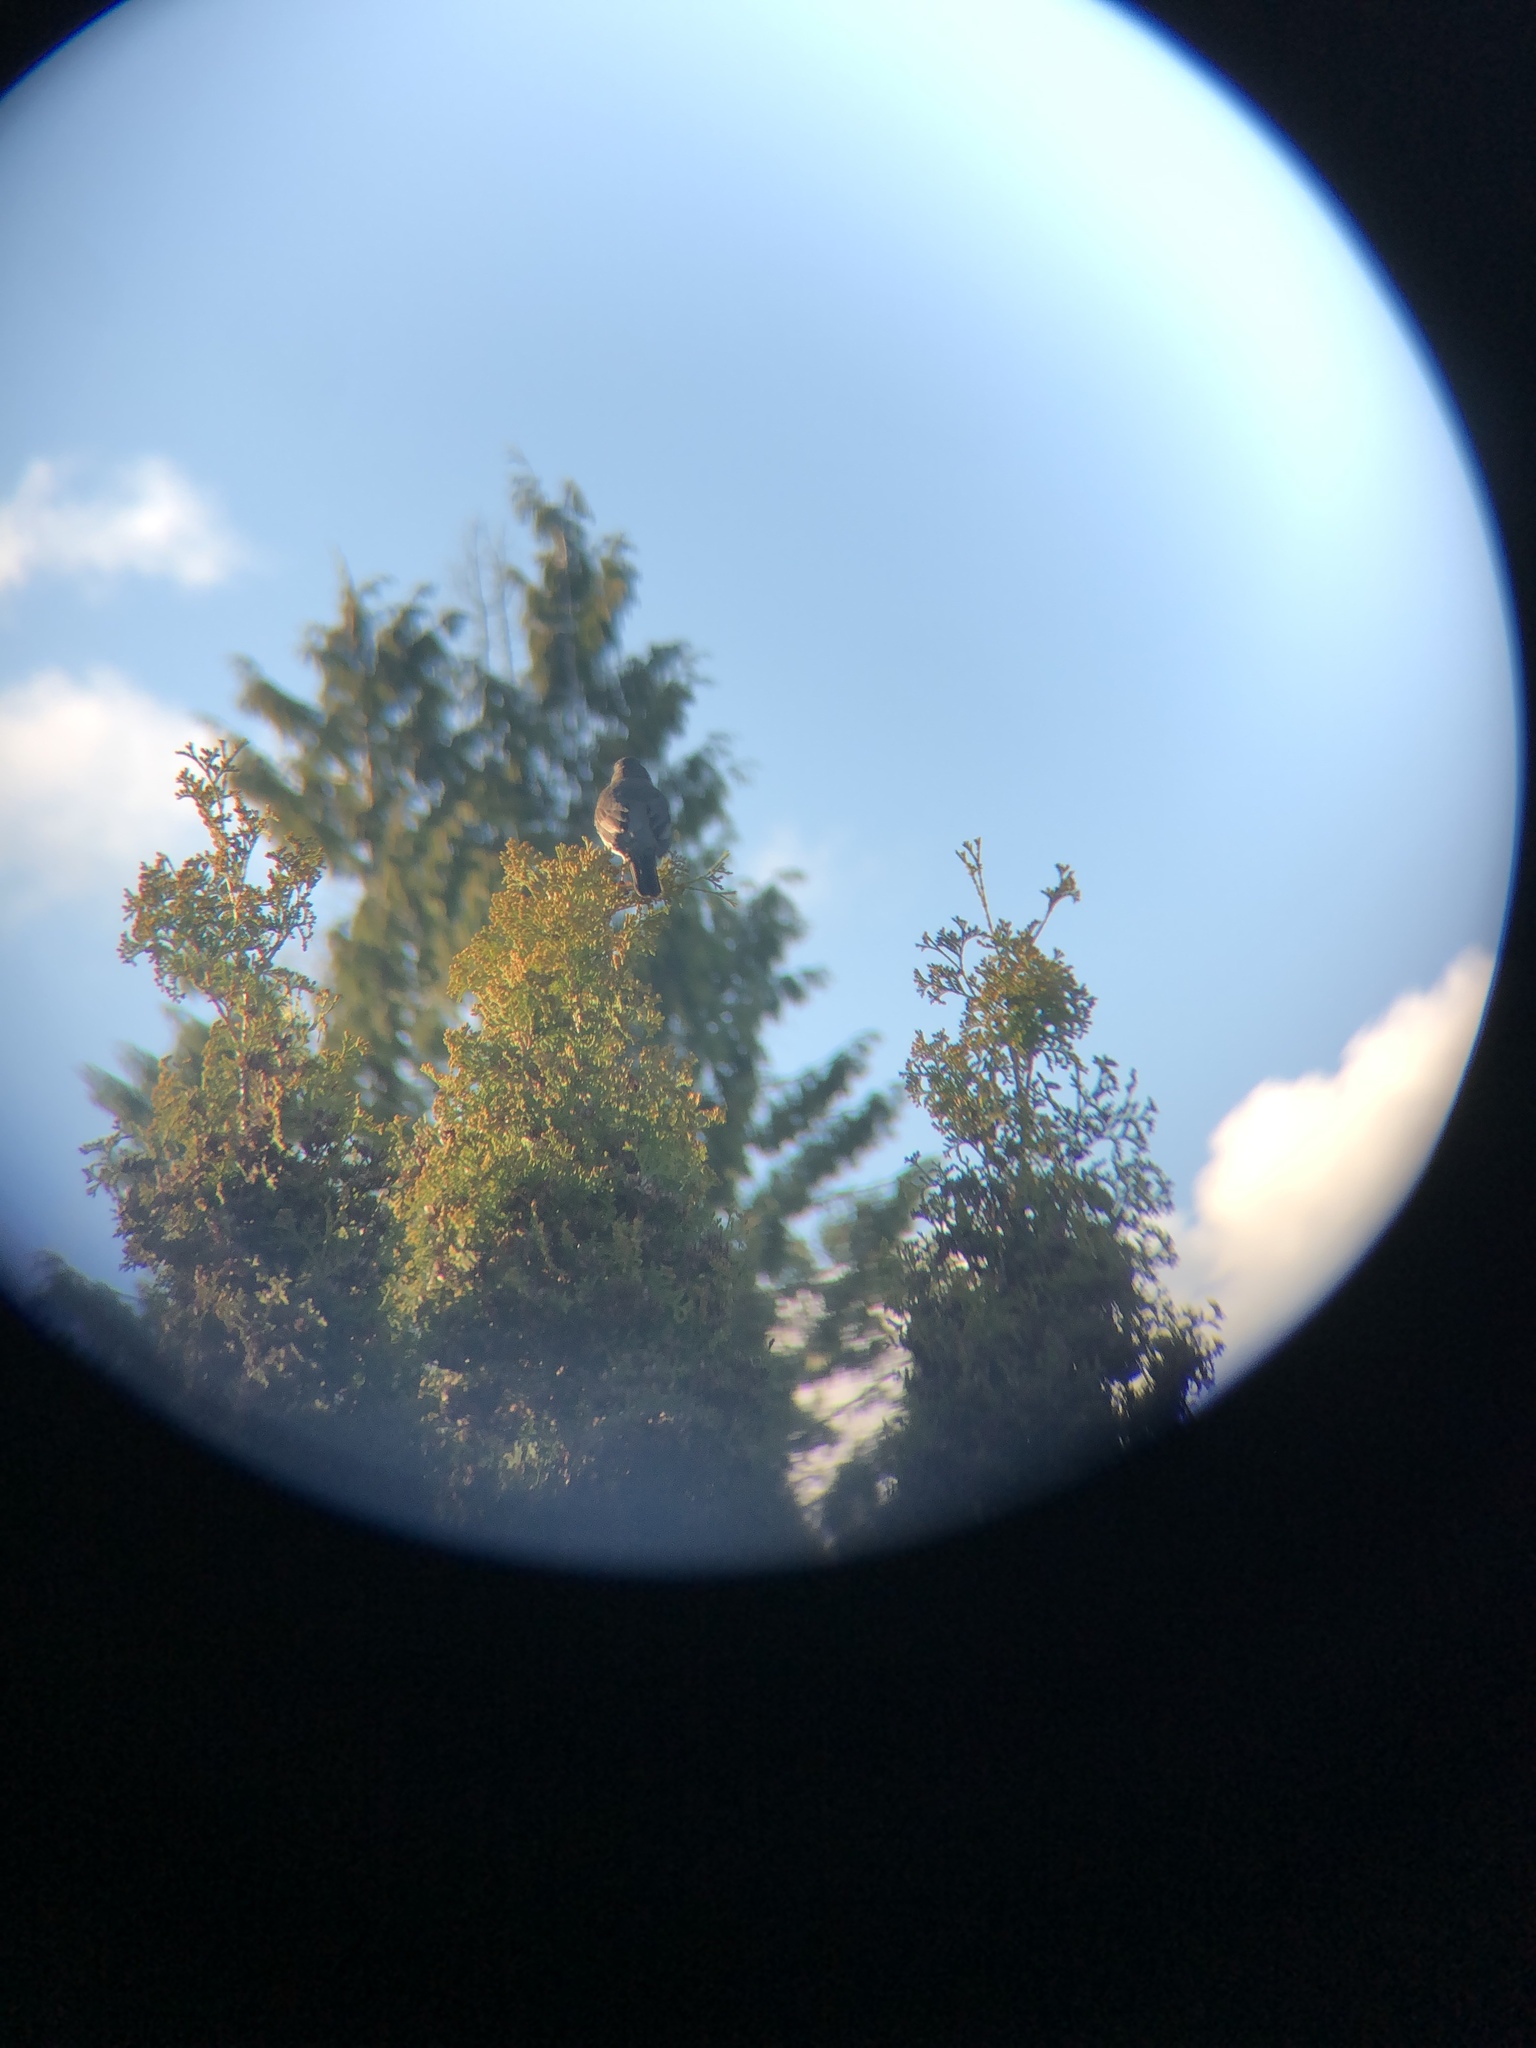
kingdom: Animalia
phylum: Chordata
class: Aves
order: Passeriformes
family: Turdidae
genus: Turdus
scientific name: Turdus migratorius
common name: American robin
